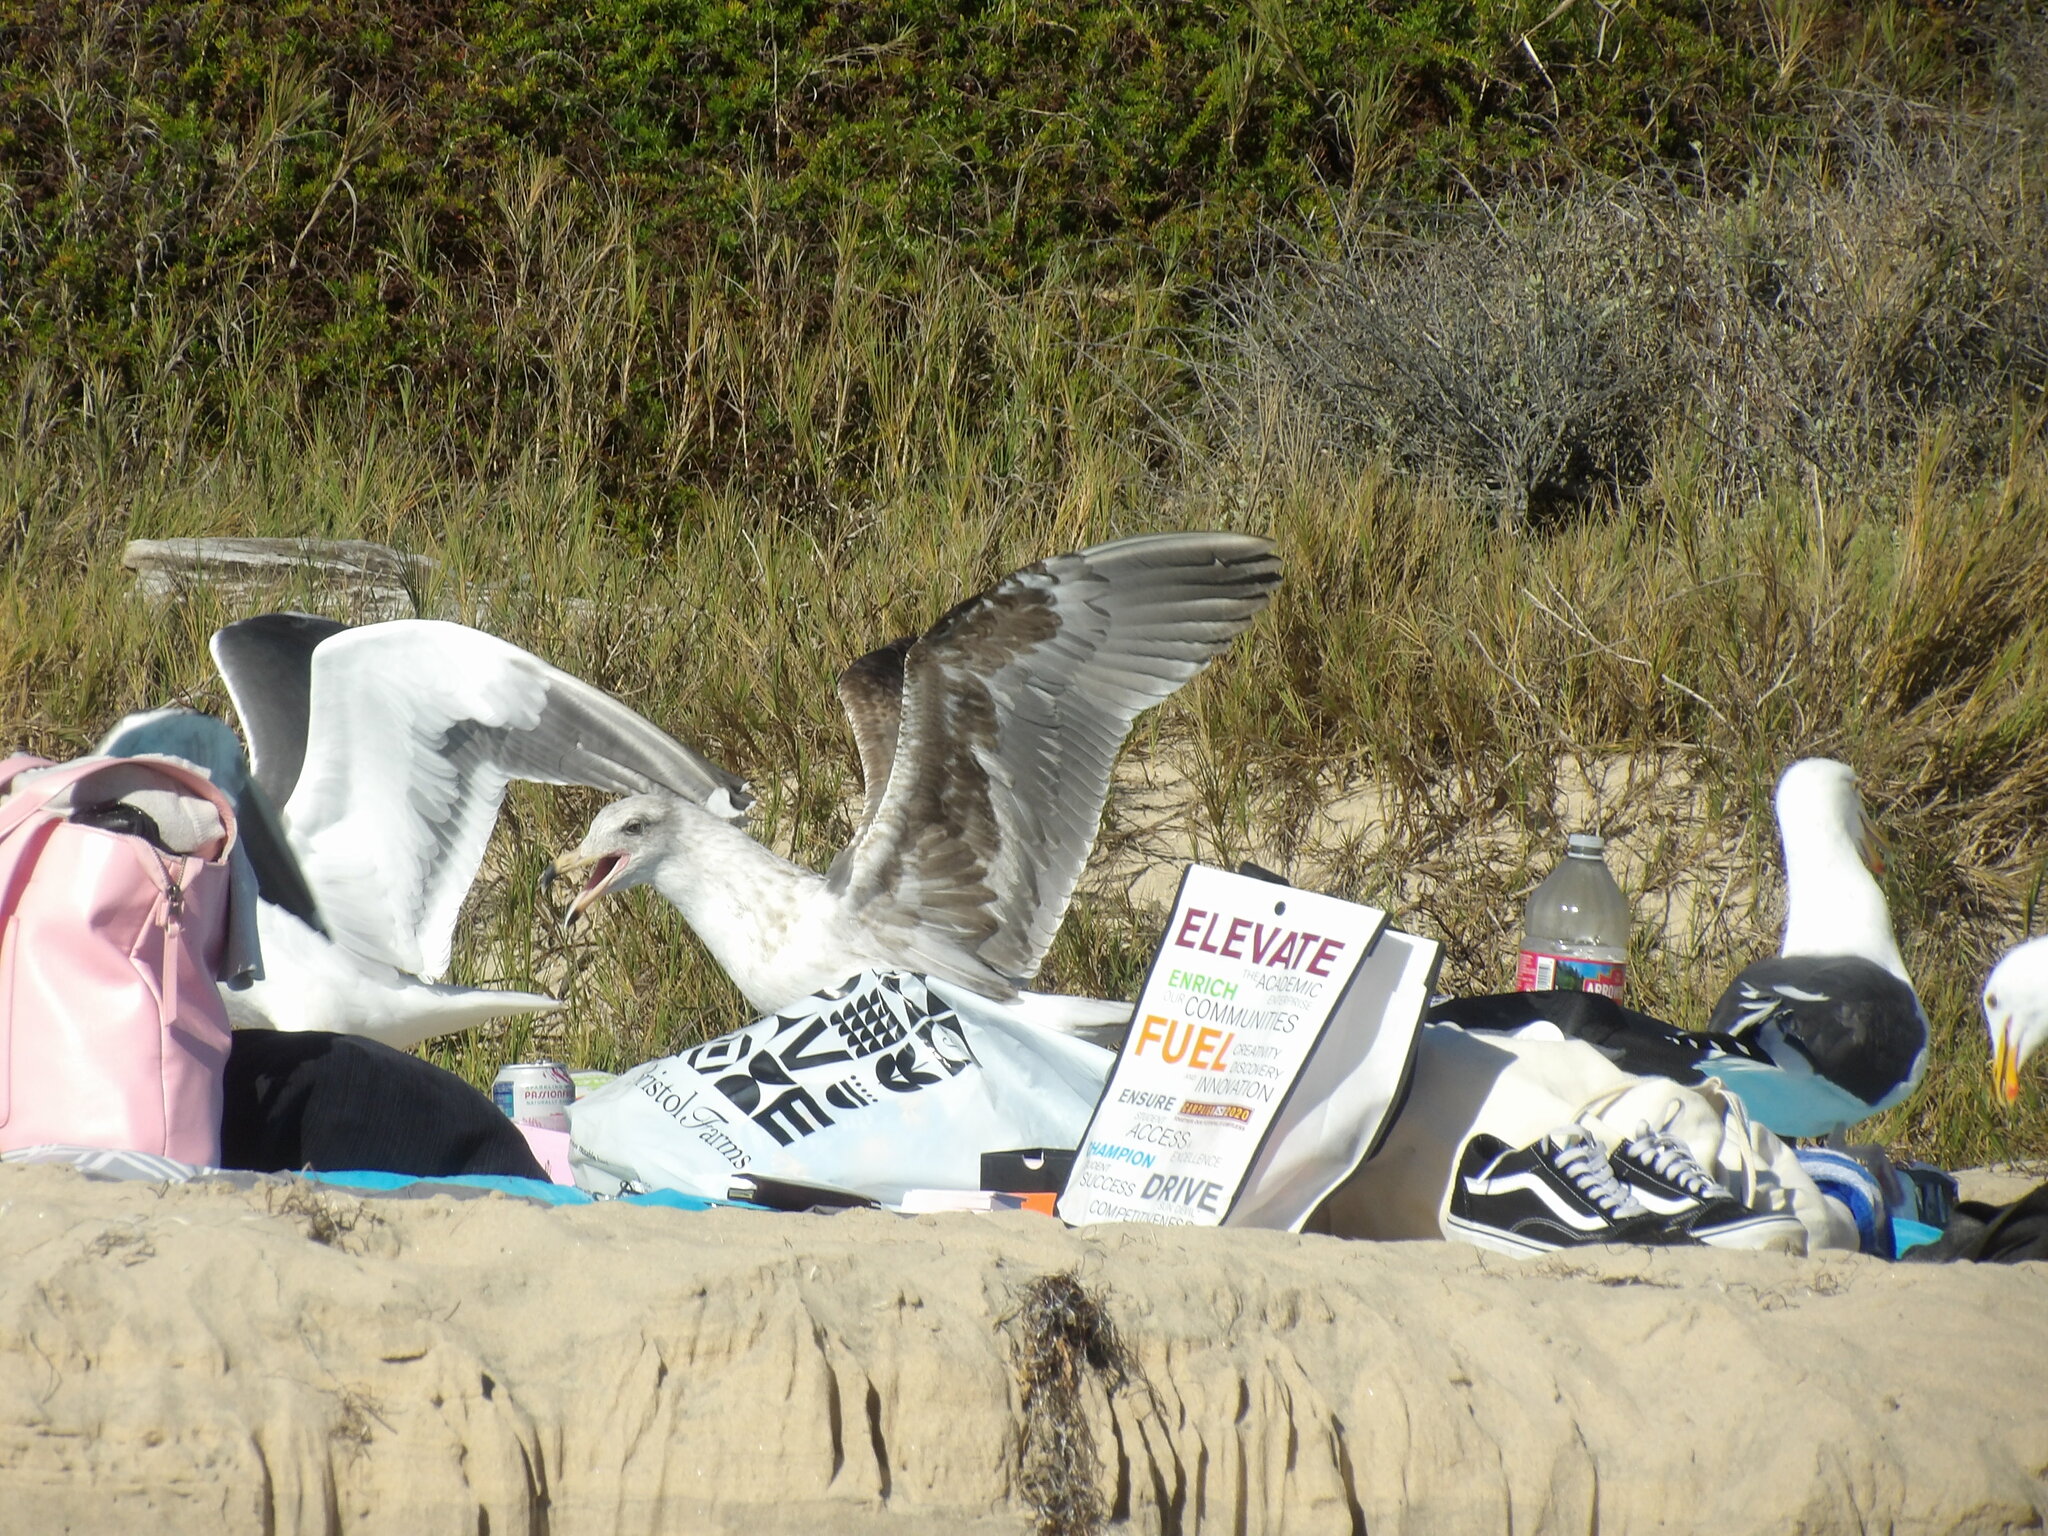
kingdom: Animalia
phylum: Chordata
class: Aves
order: Charadriiformes
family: Laridae
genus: Larus
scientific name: Larus occidentalis
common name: Western gull
